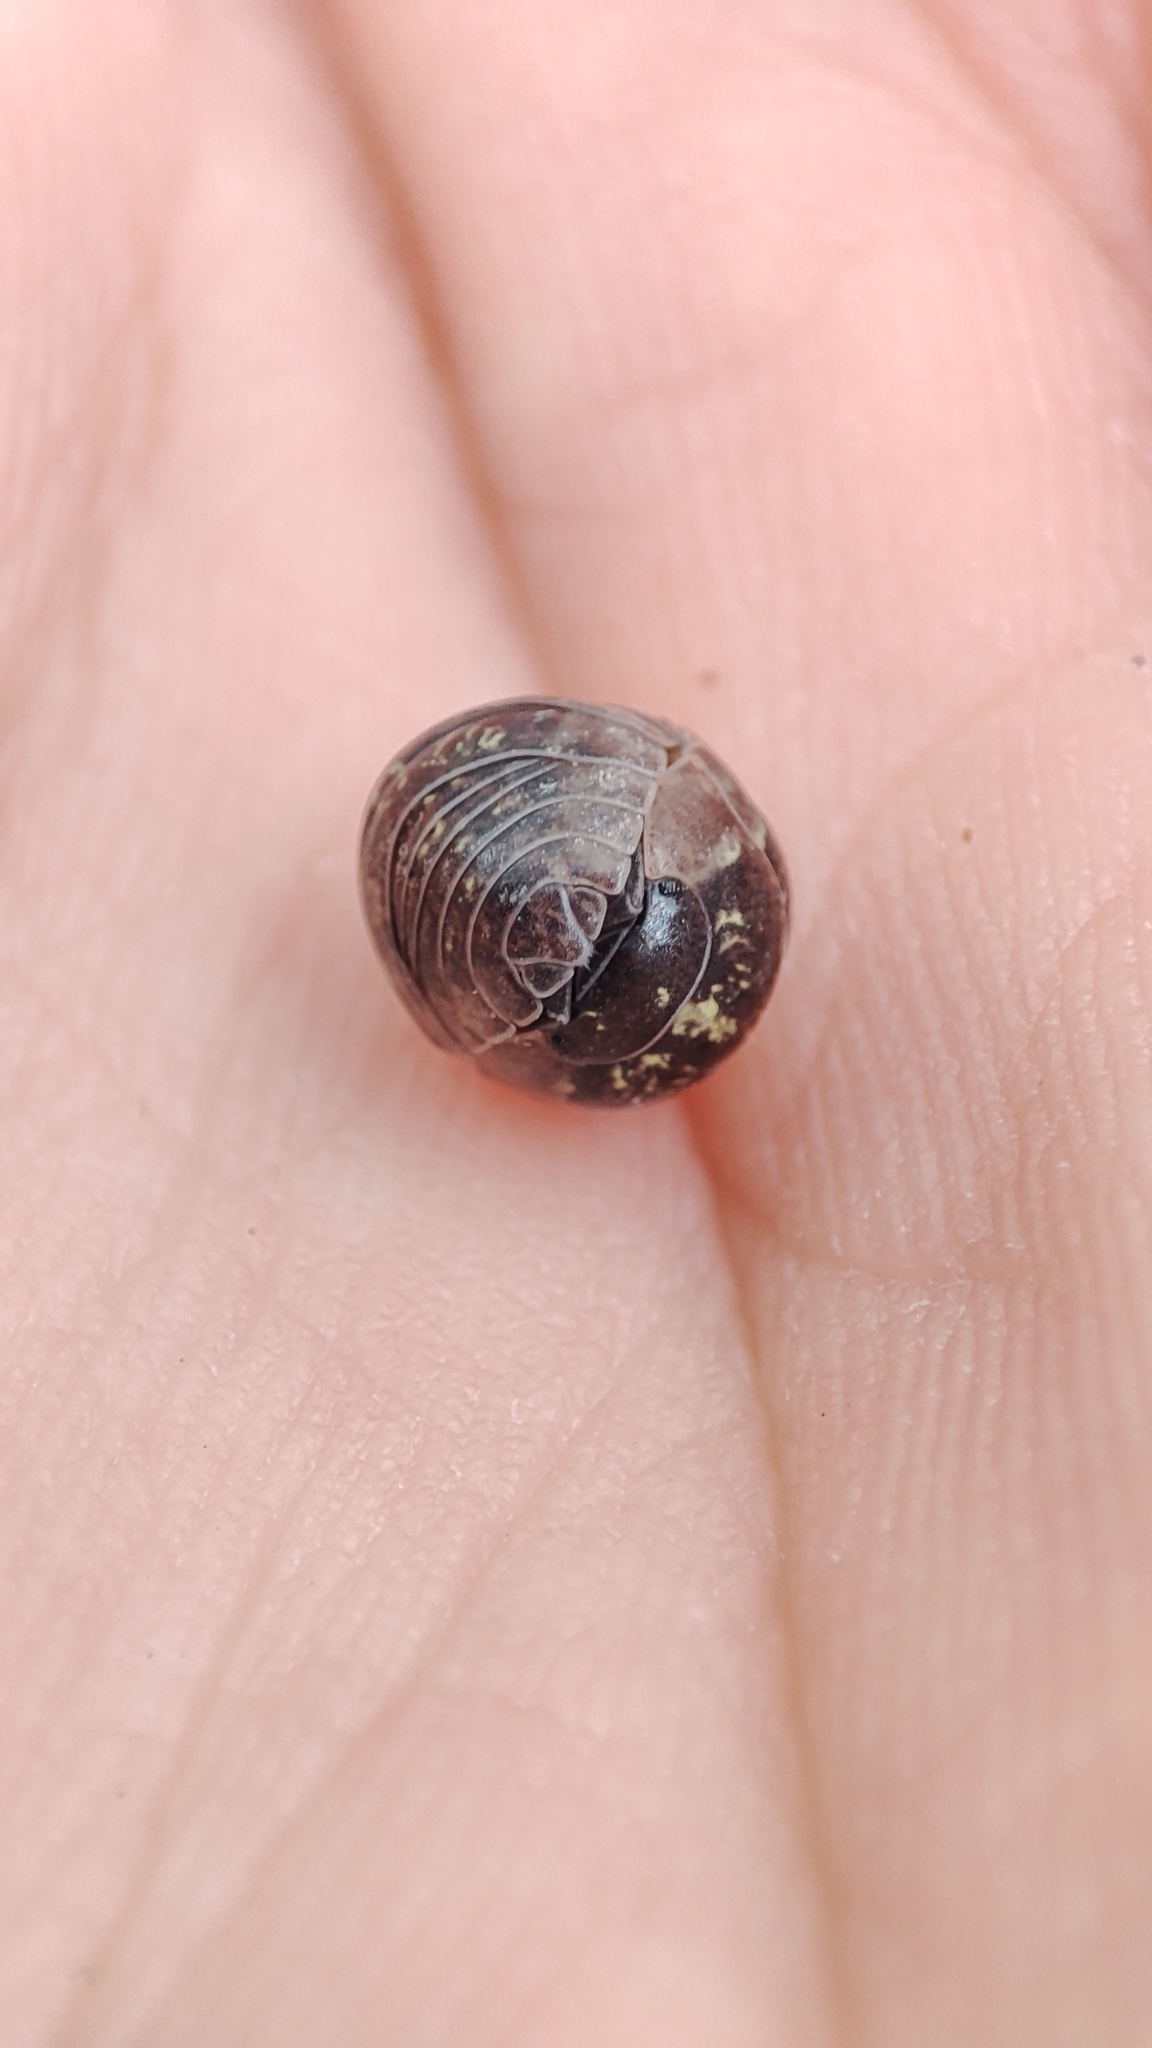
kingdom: Animalia
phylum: Arthropoda
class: Malacostraca
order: Isopoda
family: Armadillidiidae
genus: Armadillidium
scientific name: Armadillidium vulgare
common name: Common pill woodlouse
